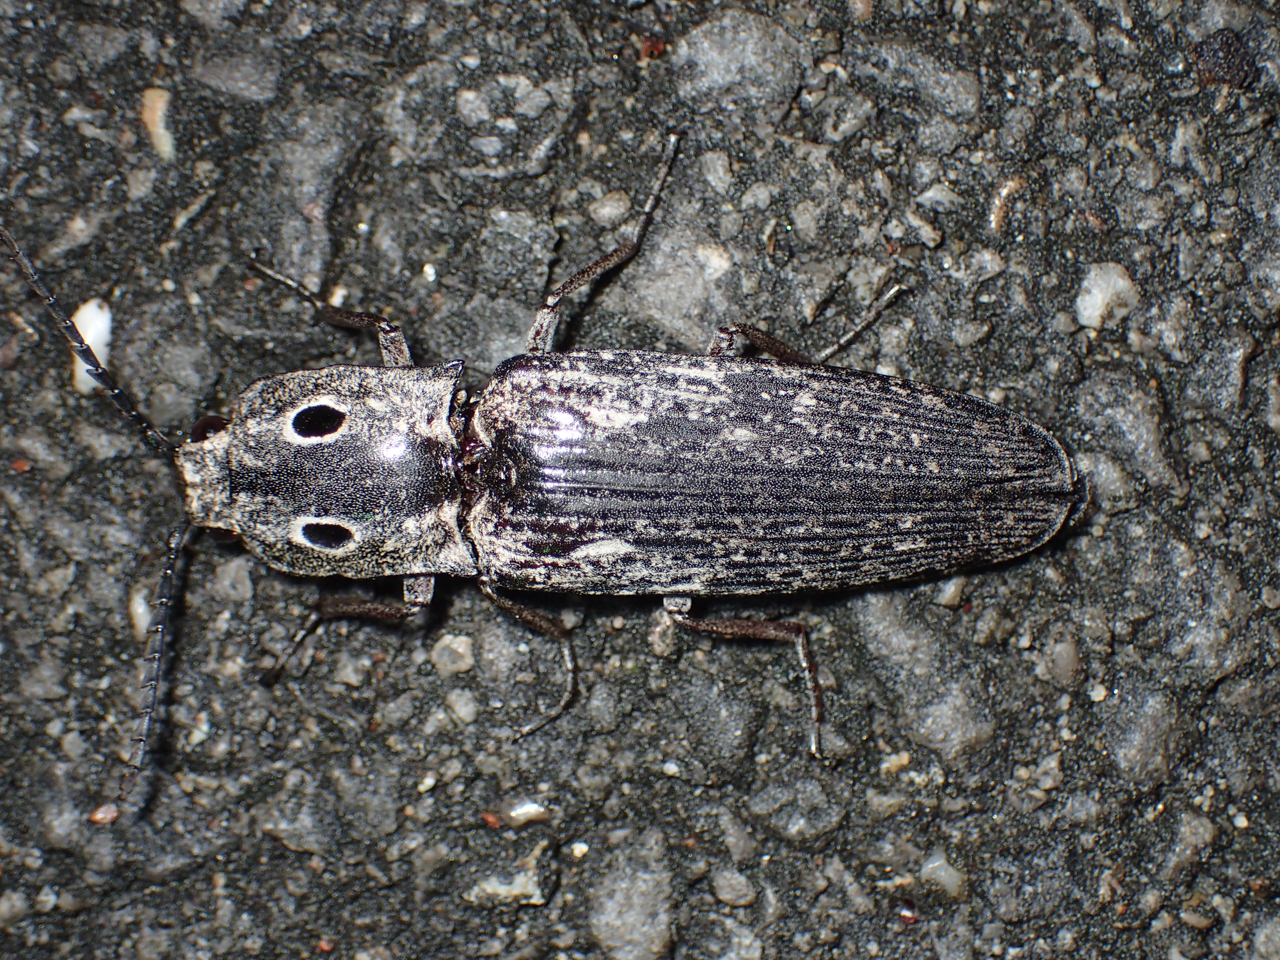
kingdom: Animalia
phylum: Arthropoda
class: Insecta
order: Coleoptera
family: Elateridae
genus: Alaus
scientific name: Alaus myops
